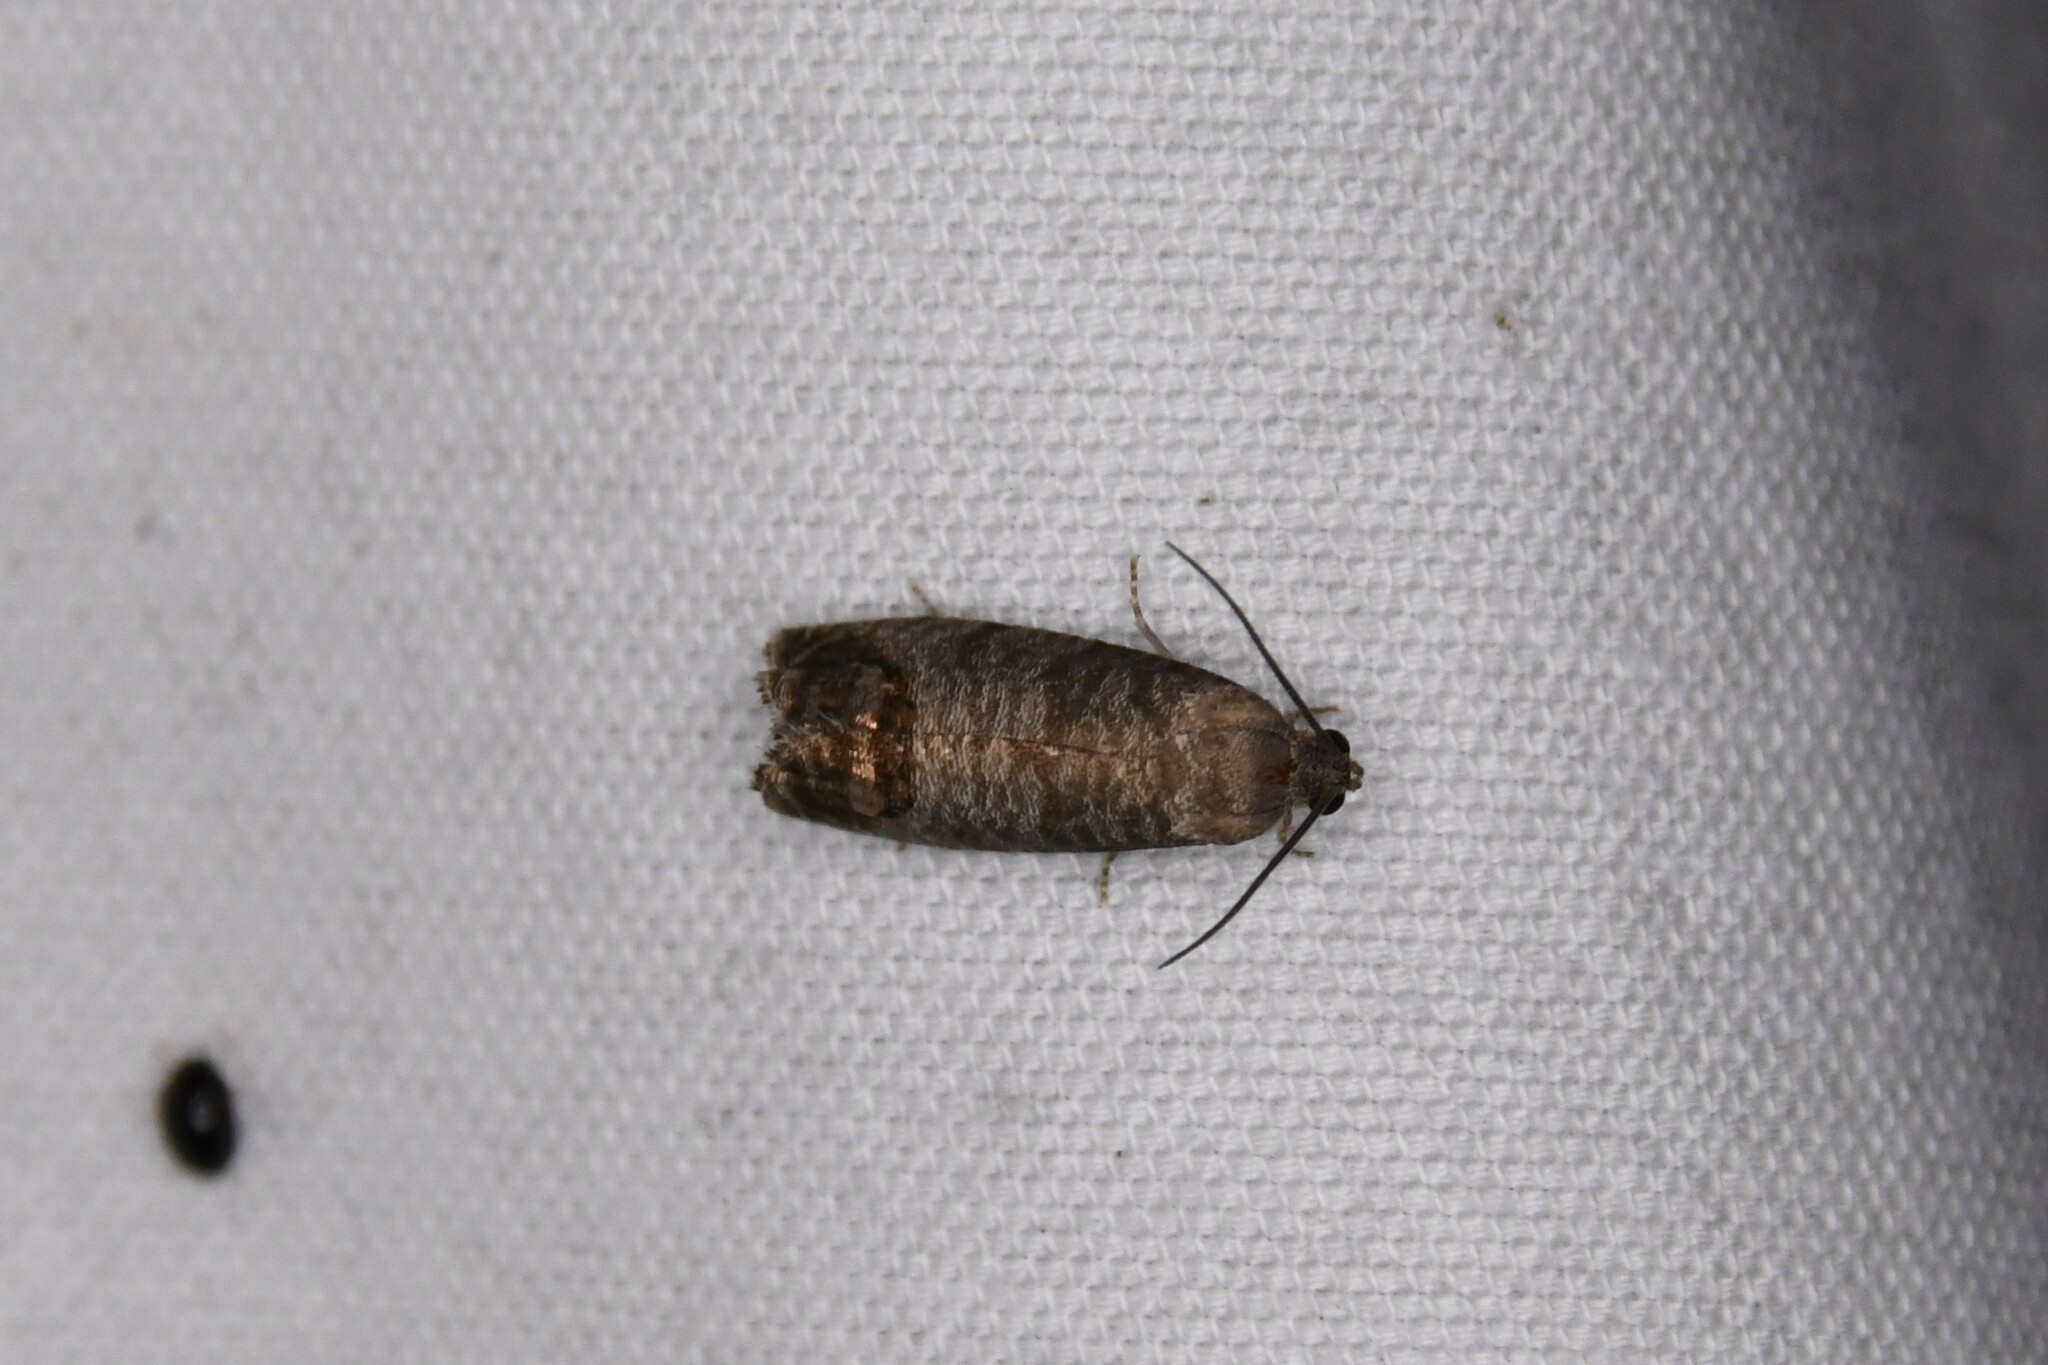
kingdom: Animalia
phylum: Arthropoda
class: Insecta
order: Lepidoptera
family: Tortricidae
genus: Cydia
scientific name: Cydia pomonella
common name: Codling moth
